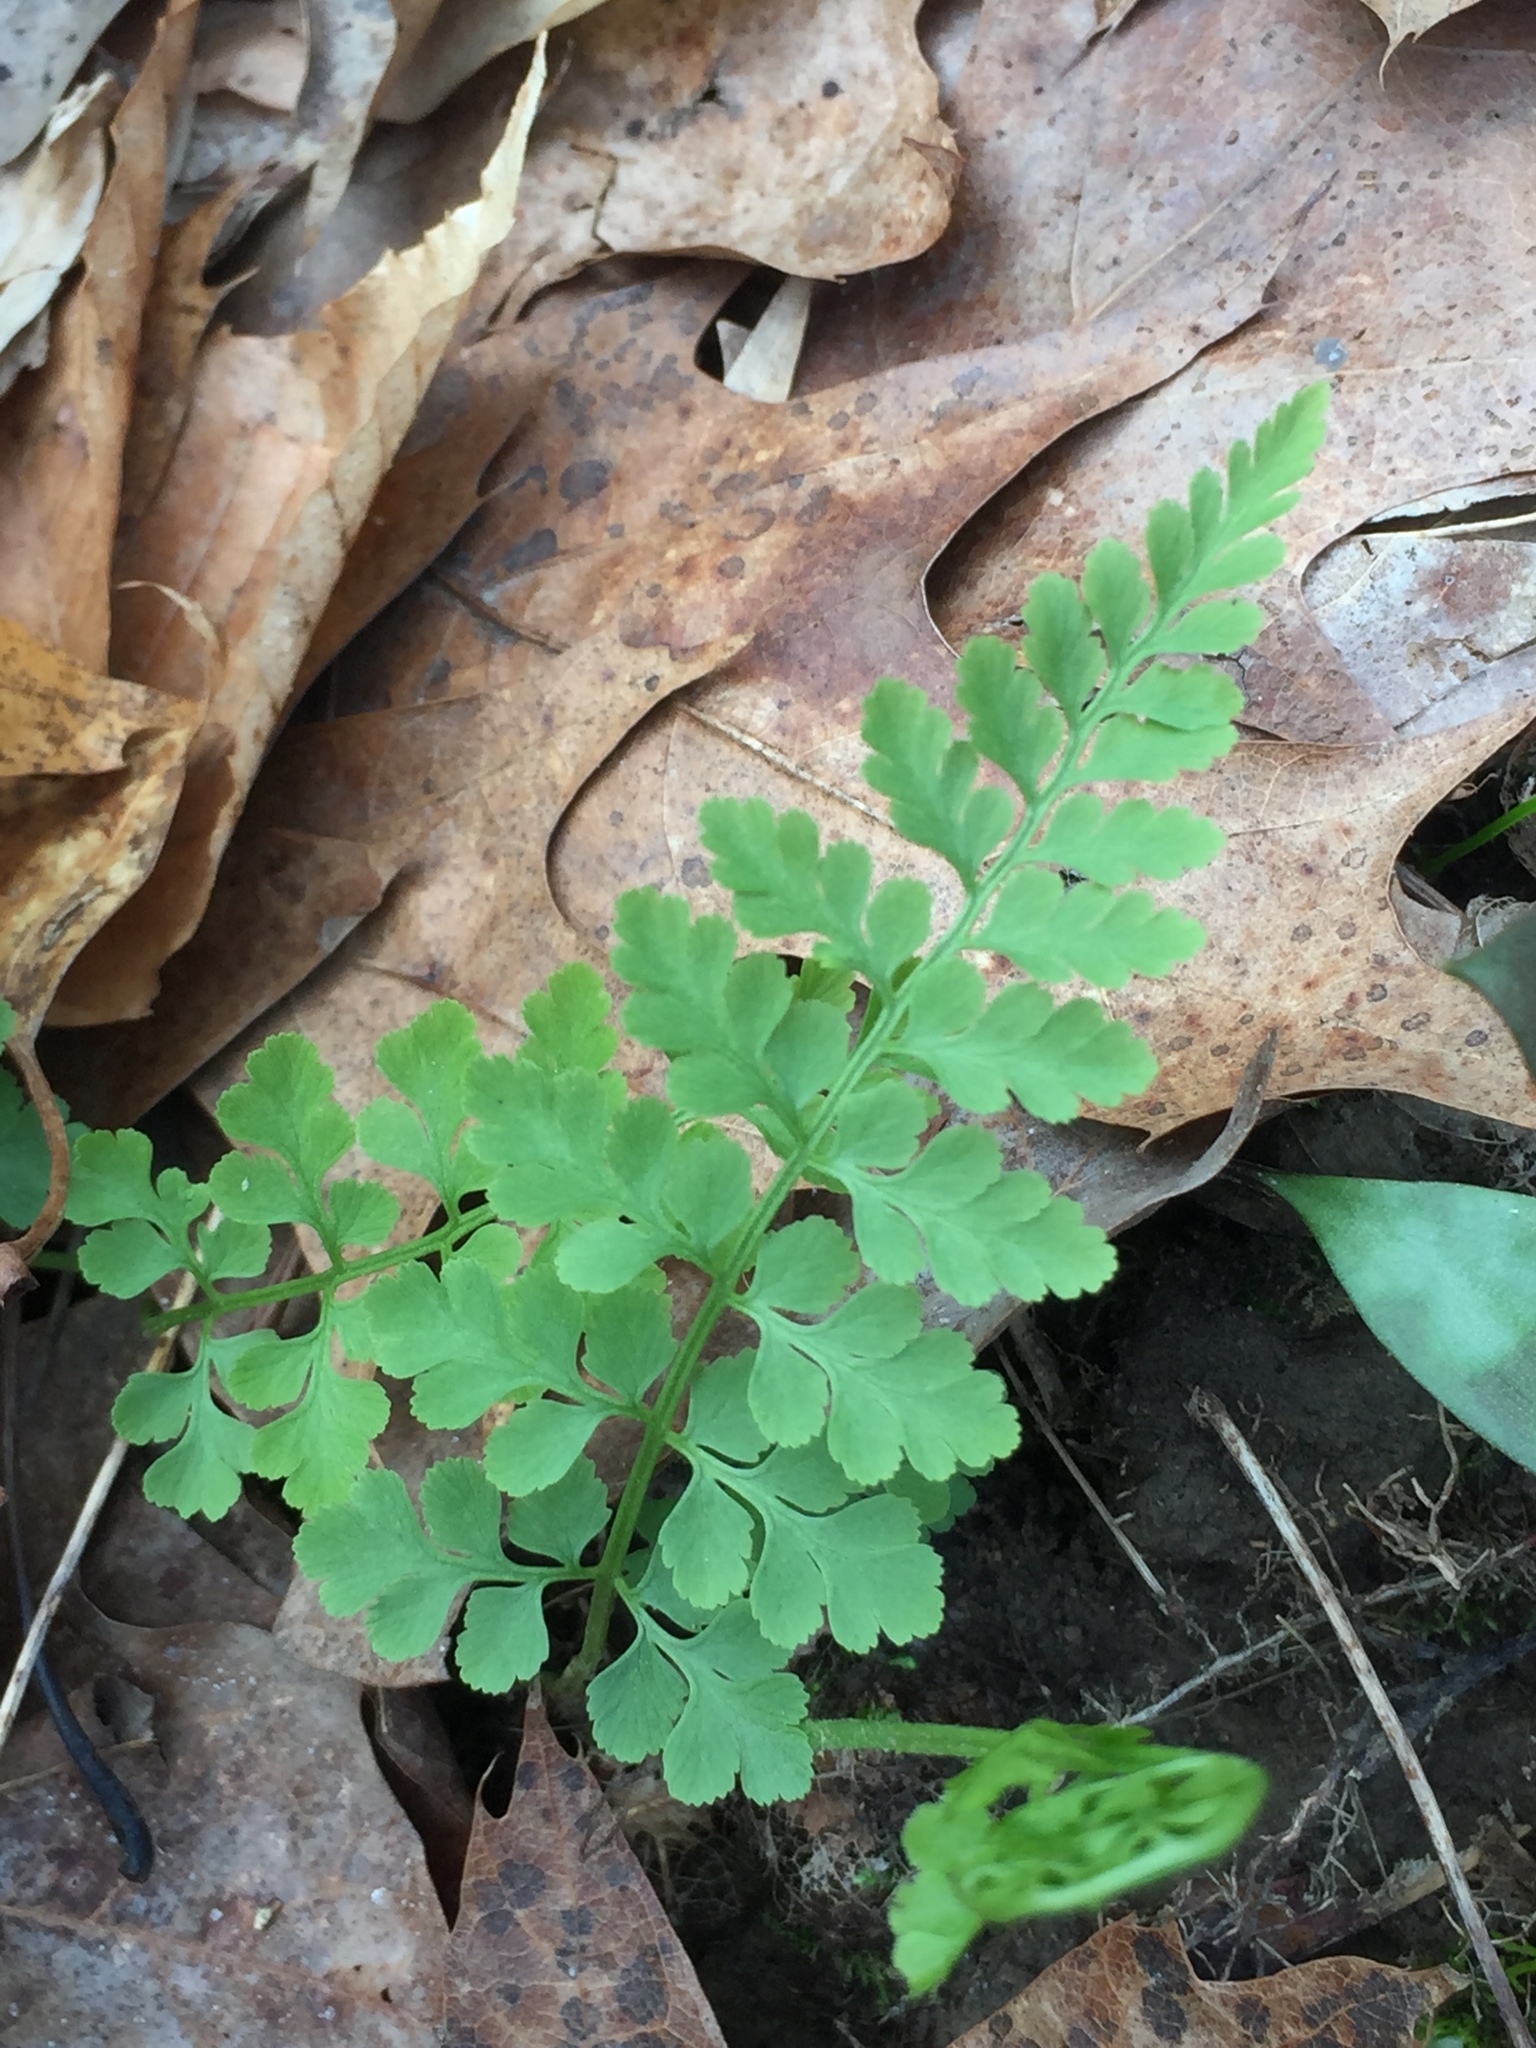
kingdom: Plantae
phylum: Tracheophyta
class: Polypodiopsida
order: Polypodiales
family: Cystopteridaceae
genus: Cystopteris
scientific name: Cystopteris protrusa
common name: Lowland brittle fern
